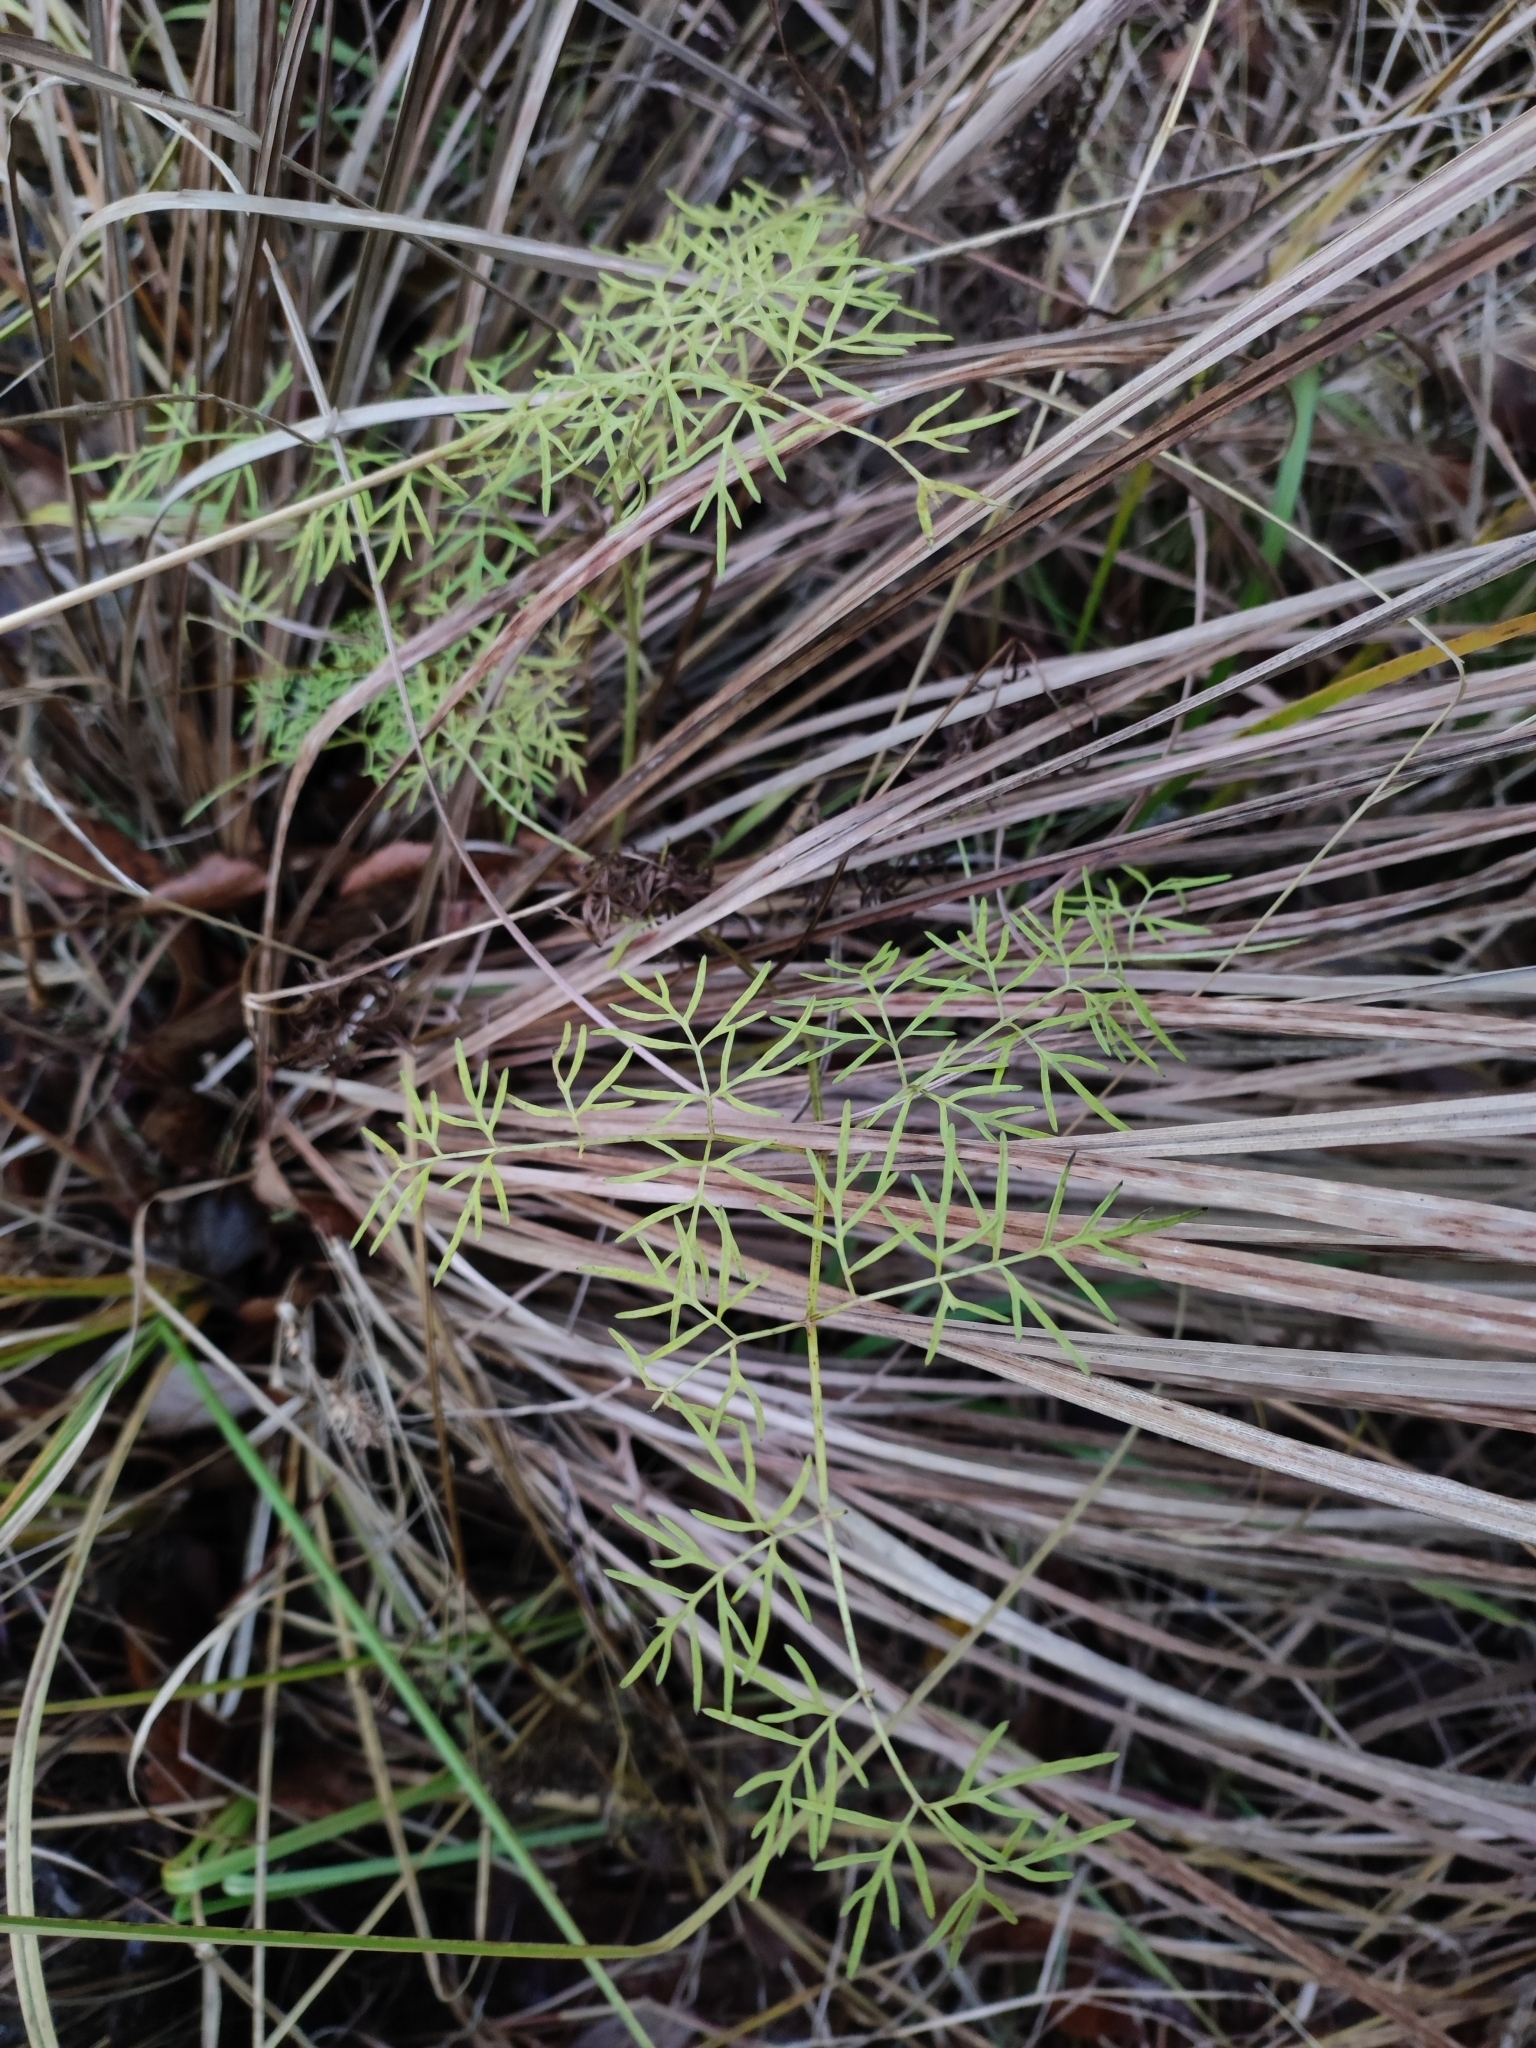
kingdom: Plantae
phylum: Tracheophyta
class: Magnoliopsida
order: Apiales
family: Apiaceae
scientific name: Apiaceae
